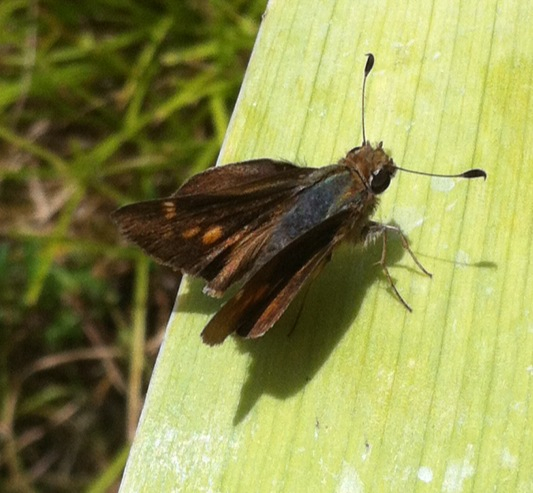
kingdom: Animalia
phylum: Arthropoda
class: Insecta
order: Lepidoptera
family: Hesperiidae
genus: Lon
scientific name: Lon melane
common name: Umber skipper
